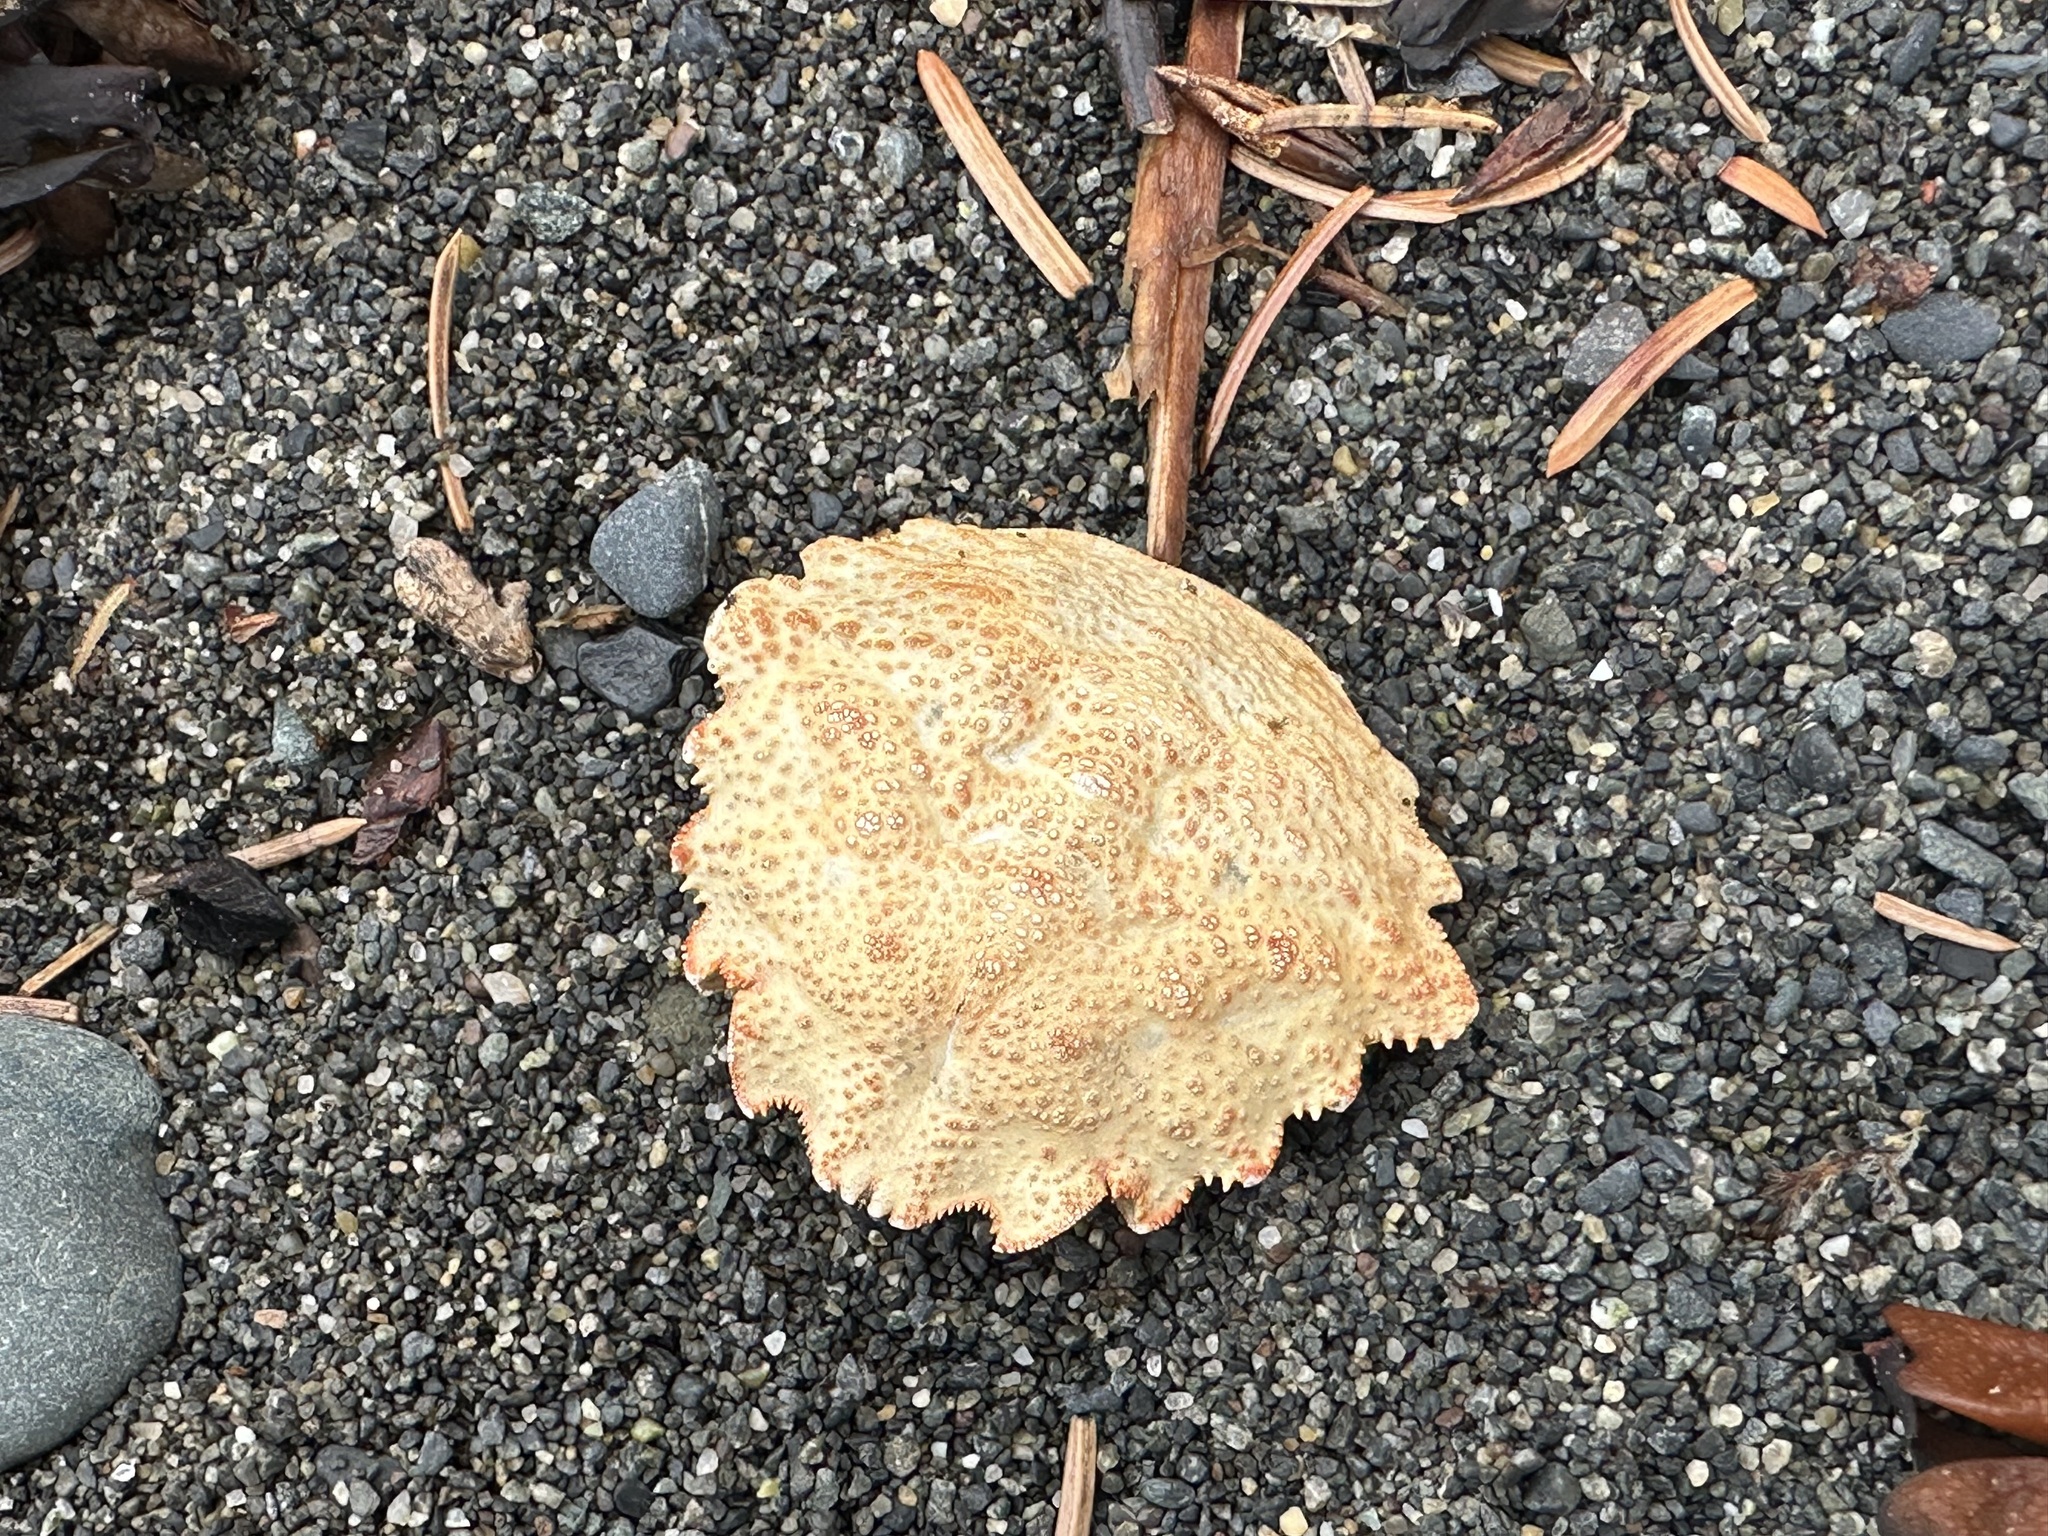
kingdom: Animalia
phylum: Arthropoda
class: Malacostraca
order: Decapoda
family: Cheiragonidae
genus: Telmessus
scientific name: Telmessus cheiragonus
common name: Helmet crab
